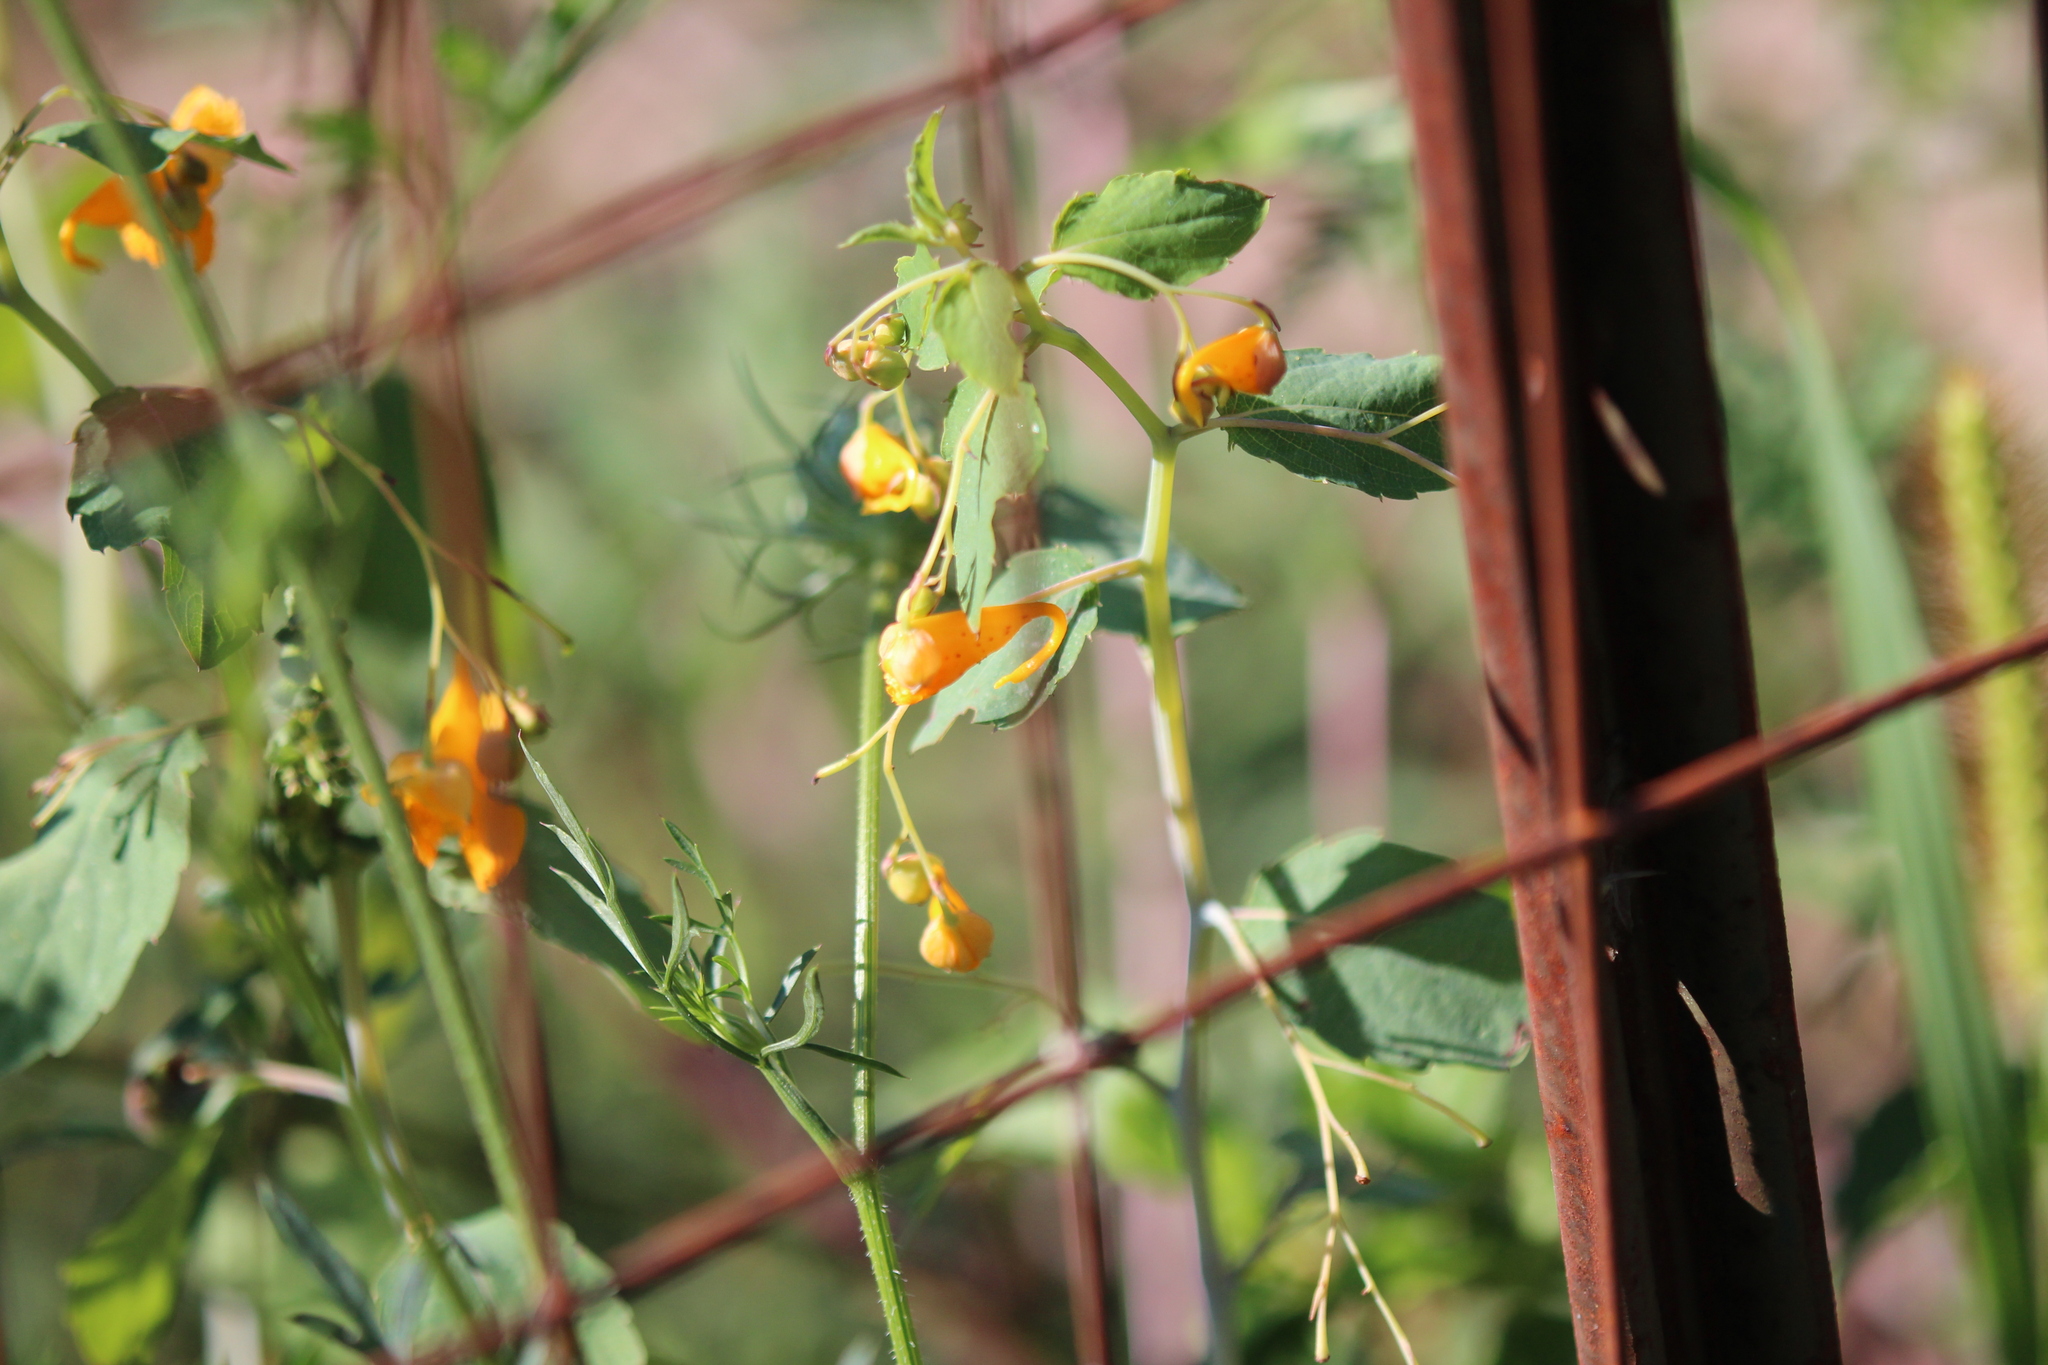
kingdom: Plantae
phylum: Tracheophyta
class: Magnoliopsida
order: Ericales
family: Balsaminaceae
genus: Impatiens
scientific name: Impatiens capensis
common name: Orange balsam
